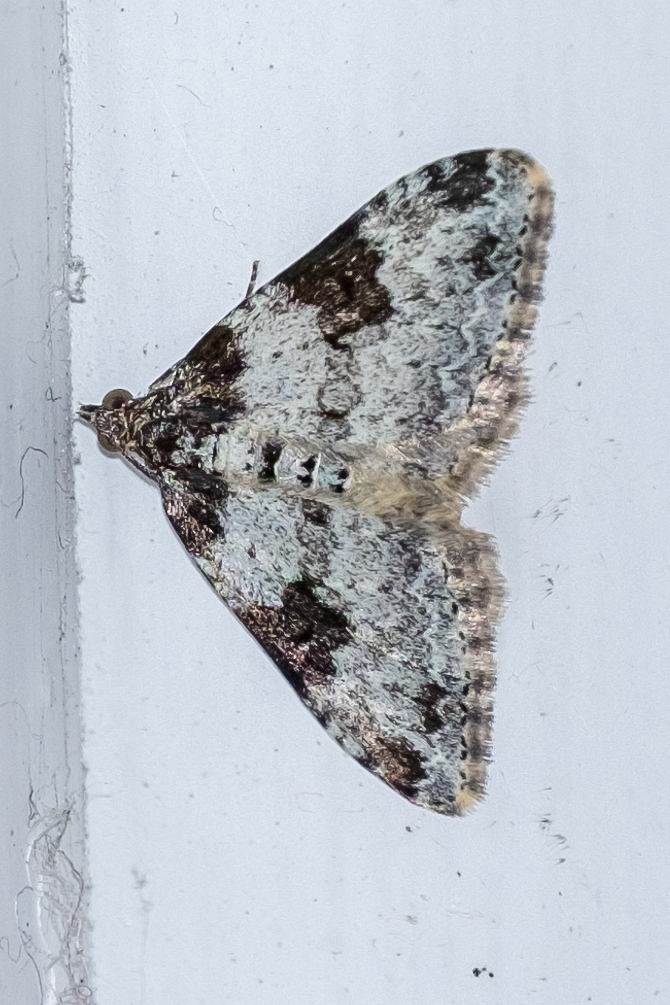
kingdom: Animalia
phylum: Arthropoda
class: Insecta
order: Lepidoptera
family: Geometridae
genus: Xanthorhoe
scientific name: Xanthorhoe fluctuata
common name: Garden carpet
